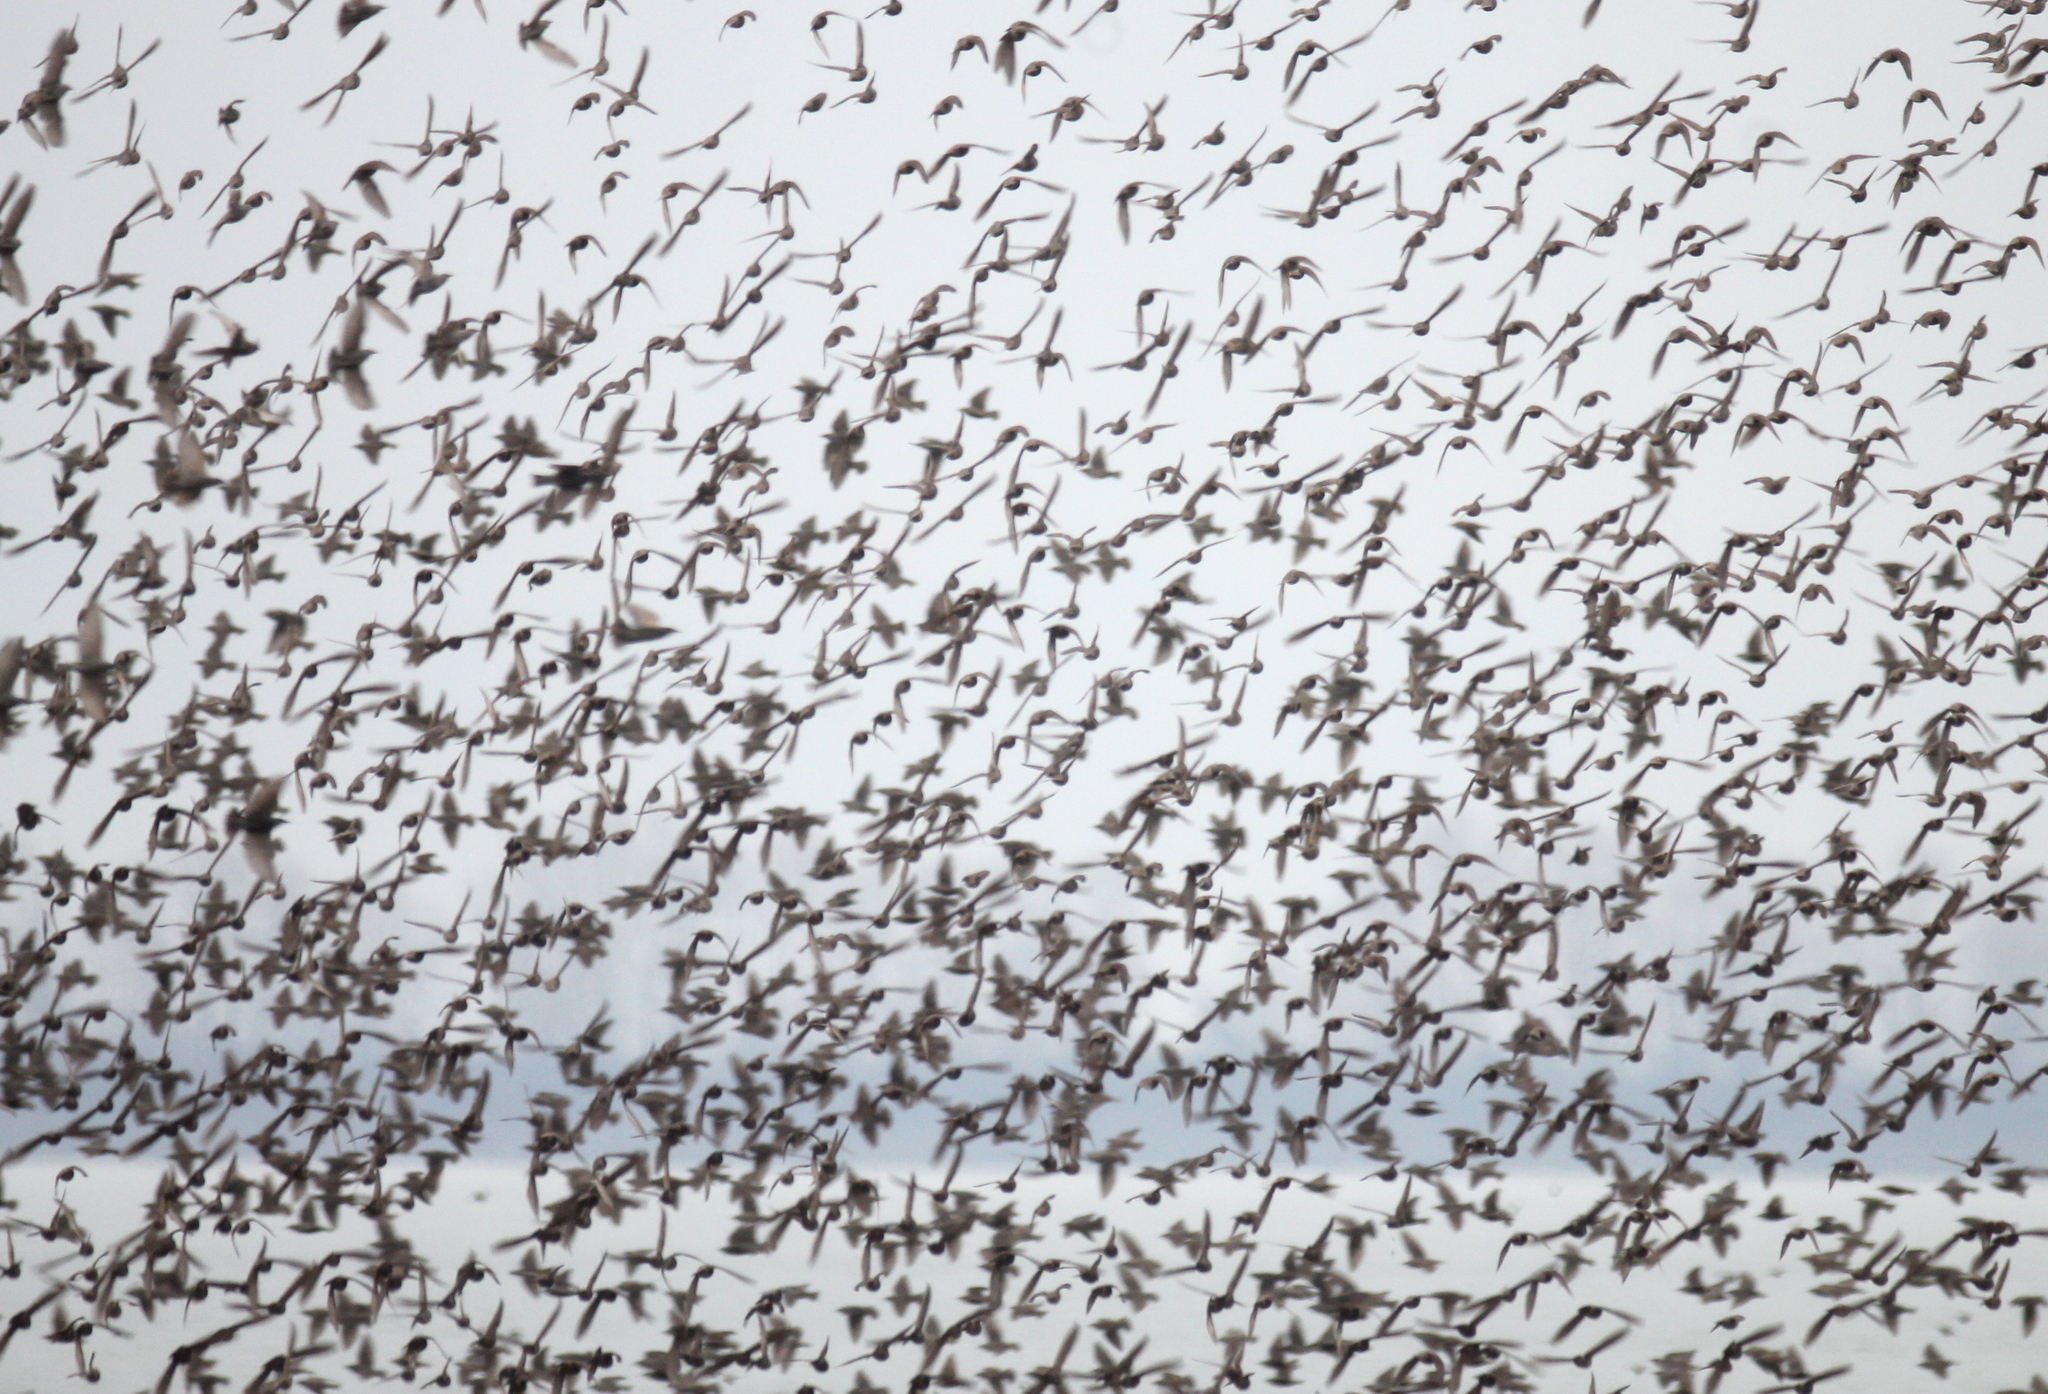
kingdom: Animalia
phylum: Chordata
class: Aves
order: Passeriformes
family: Sturnidae
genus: Sturnus
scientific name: Sturnus vulgaris
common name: Common starling
